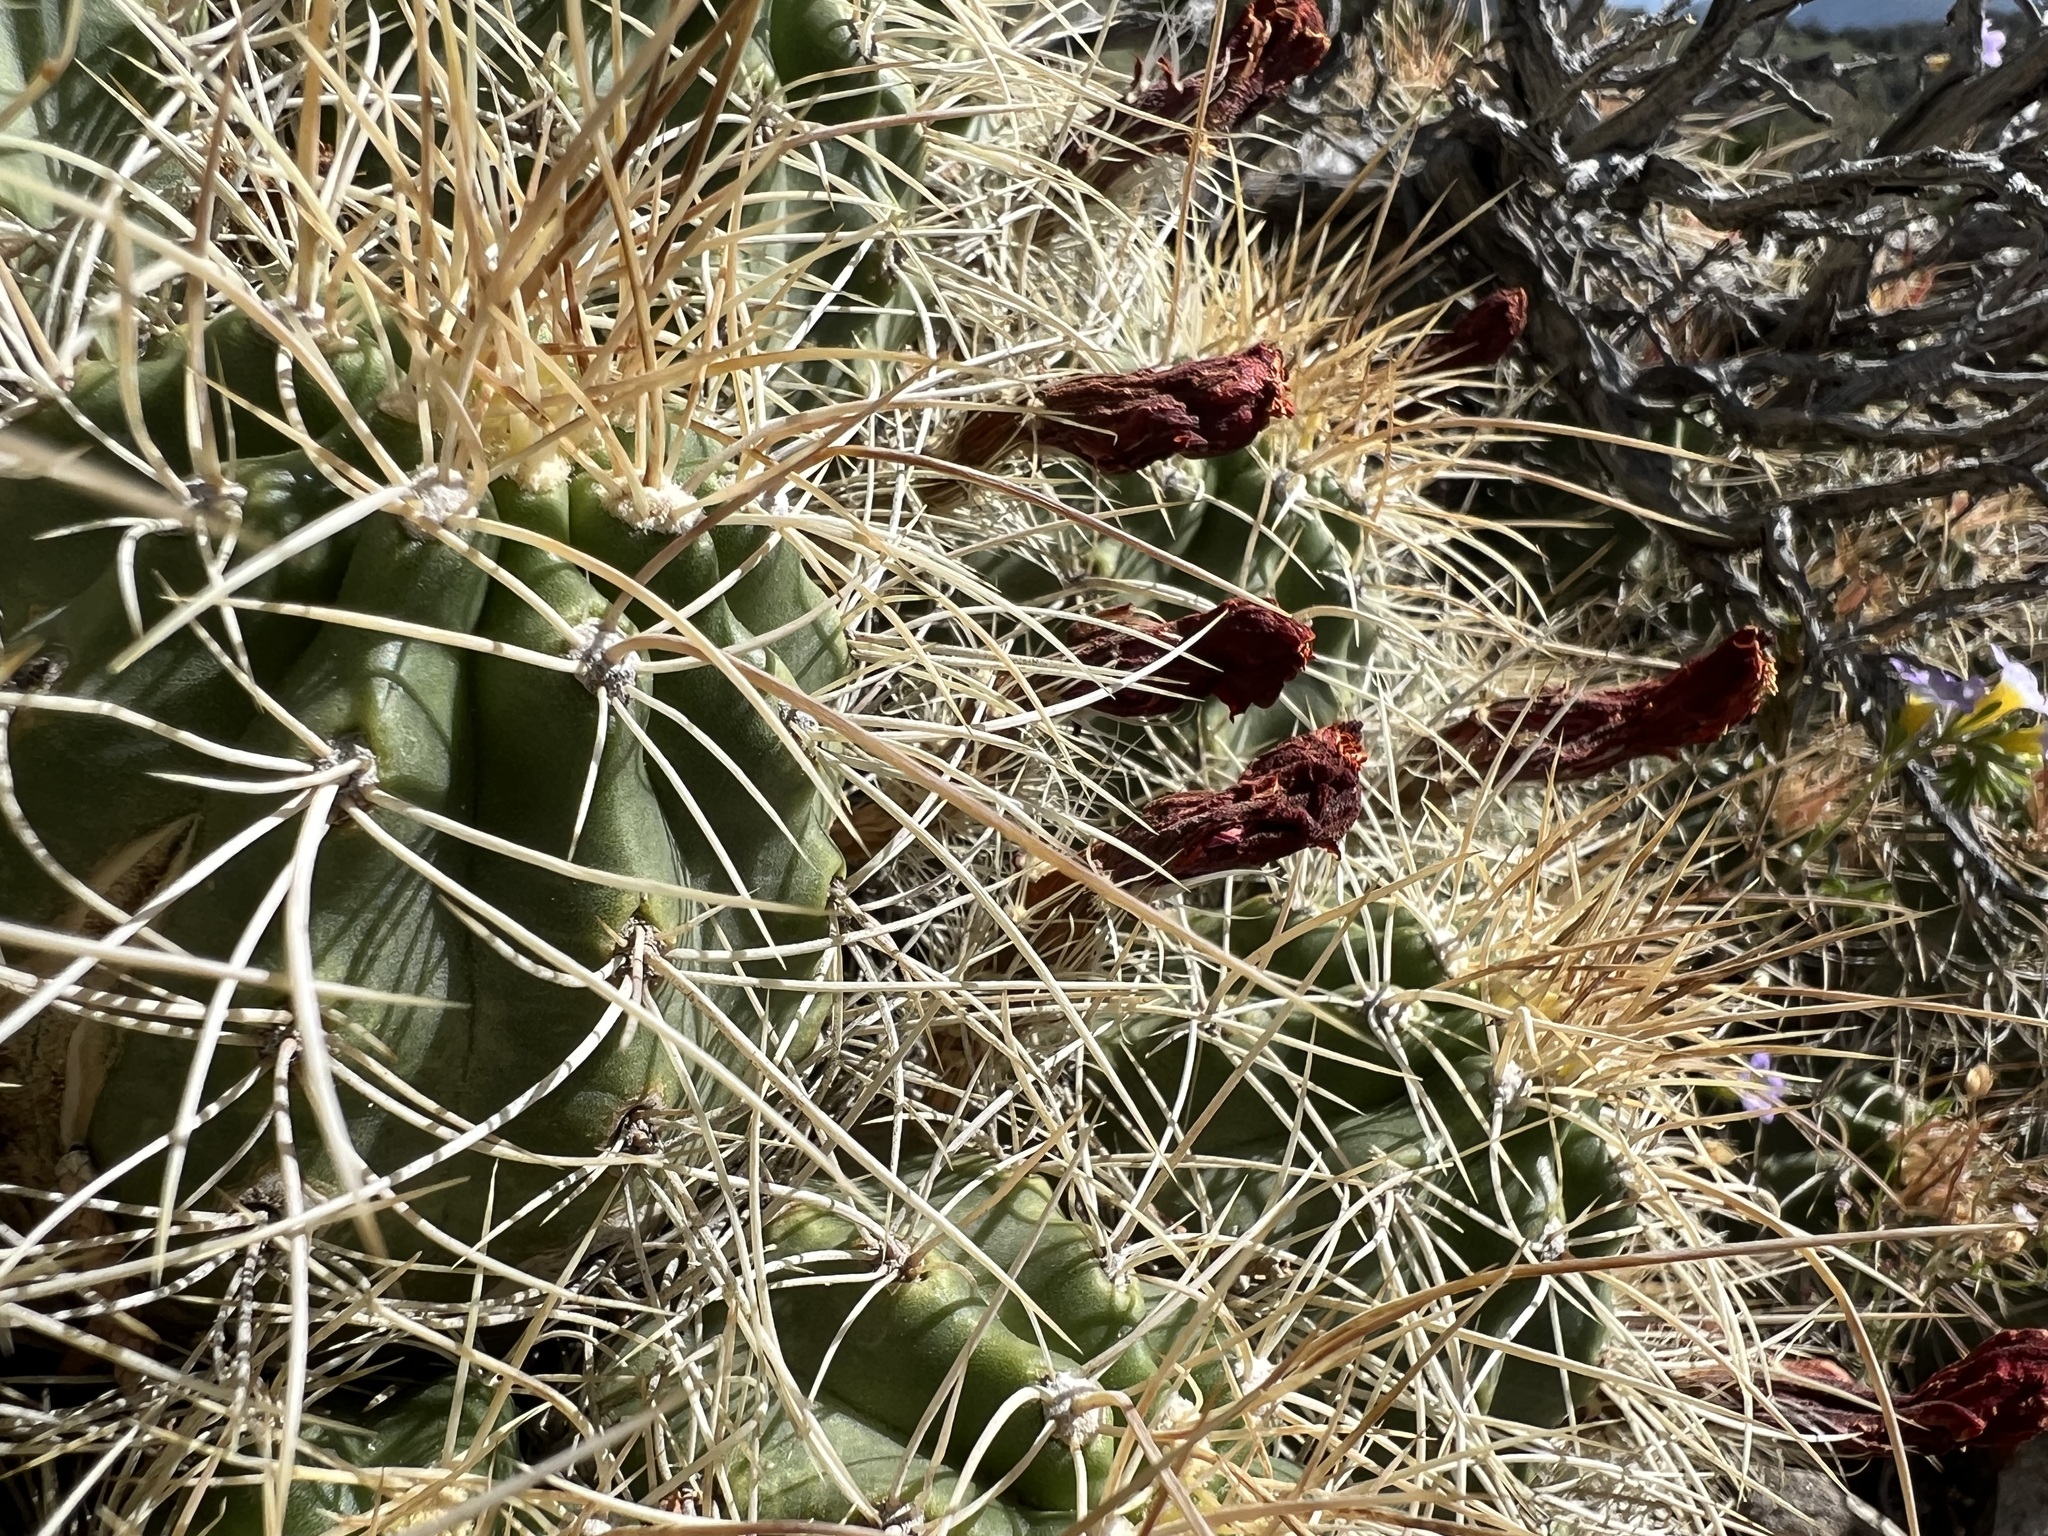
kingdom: Plantae
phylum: Tracheophyta
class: Magnoliopsida
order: Caryophyllales
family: Cactaceae
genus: Echinocereus
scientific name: Echinocereus triglochidiatus
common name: Claretcup hedgehog
